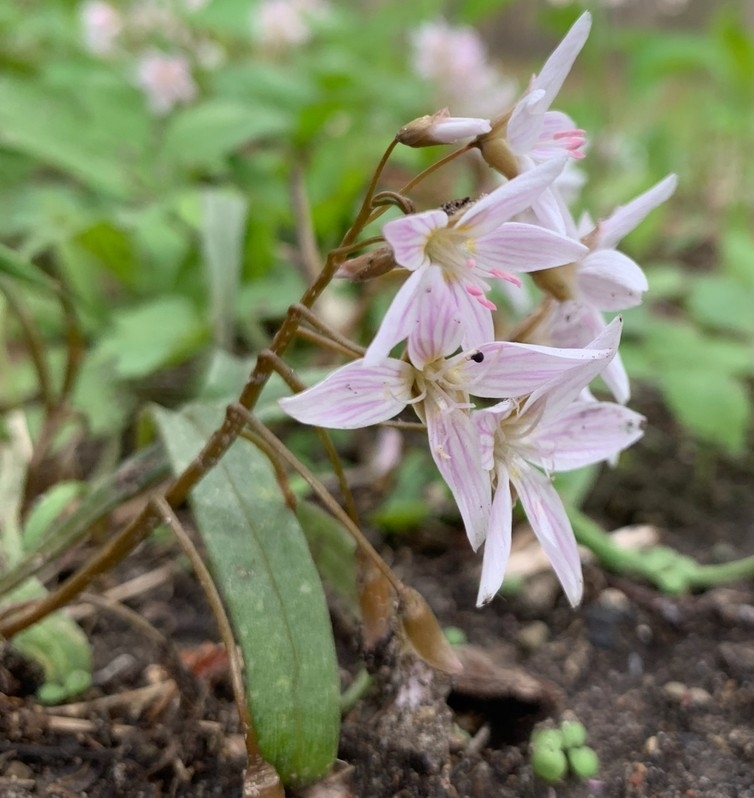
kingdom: Plantae
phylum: Tracheophyta
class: Magnoliopsida
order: Caryophyllales
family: Montiaceae
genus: Claytonia
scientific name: Claytonia virginica
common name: Virginia springbeauty
